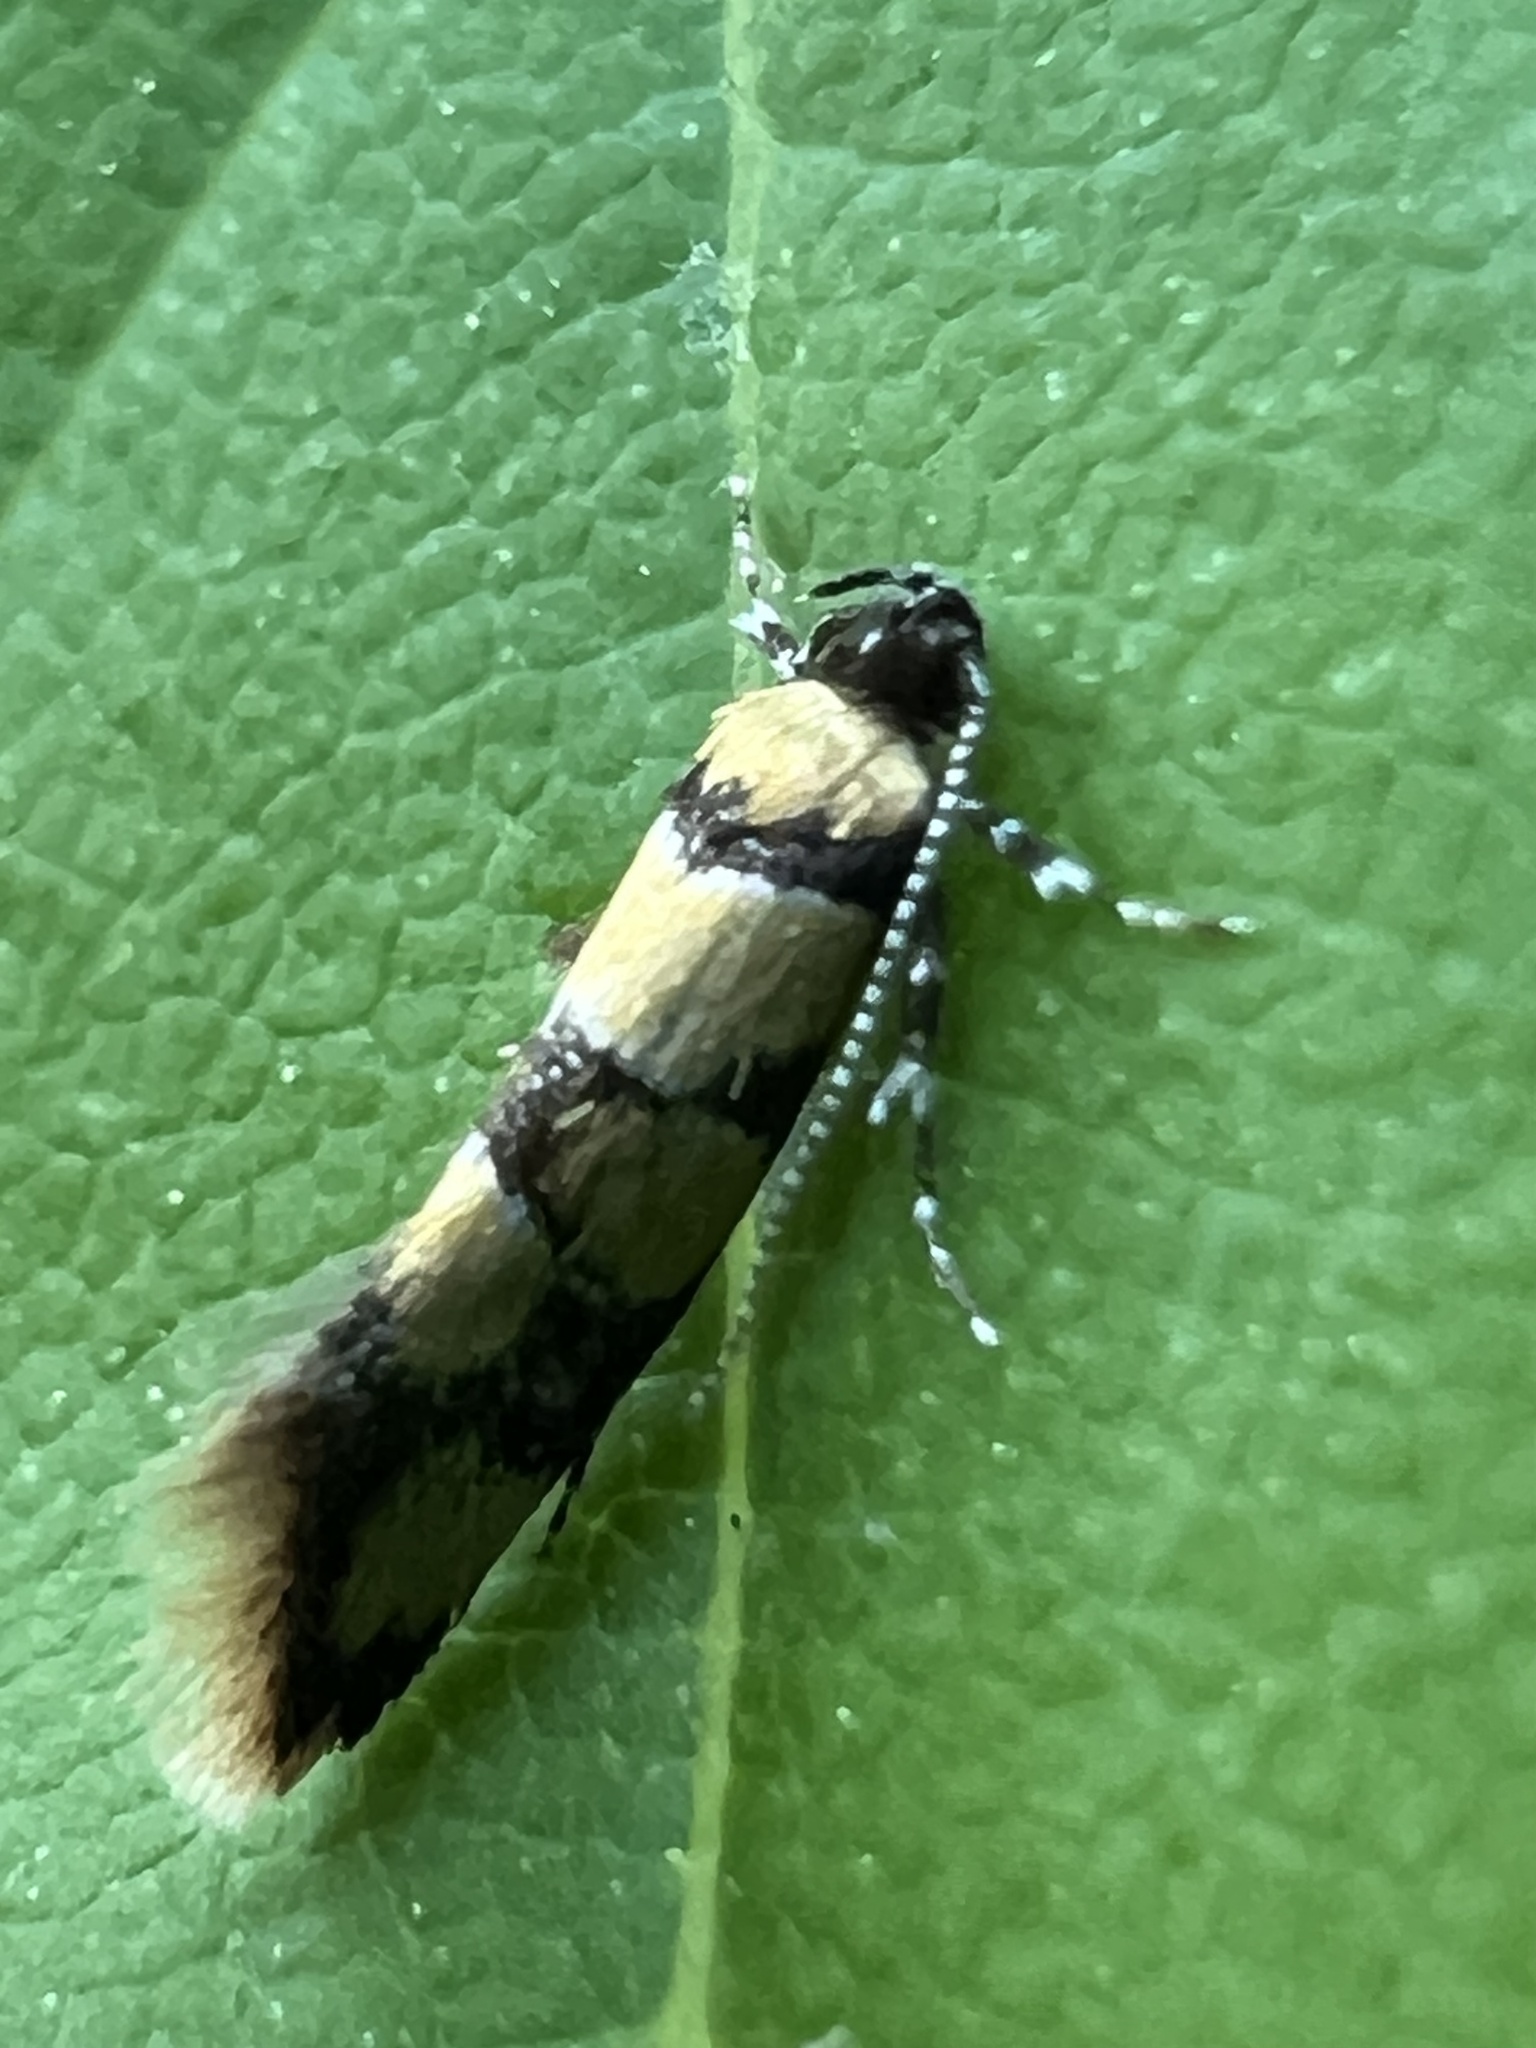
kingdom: Animalia
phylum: Arthropoda
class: Insecta
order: Lepidoptera
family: Oecophoridae
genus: Decantha
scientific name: Decantha borkhausenii
